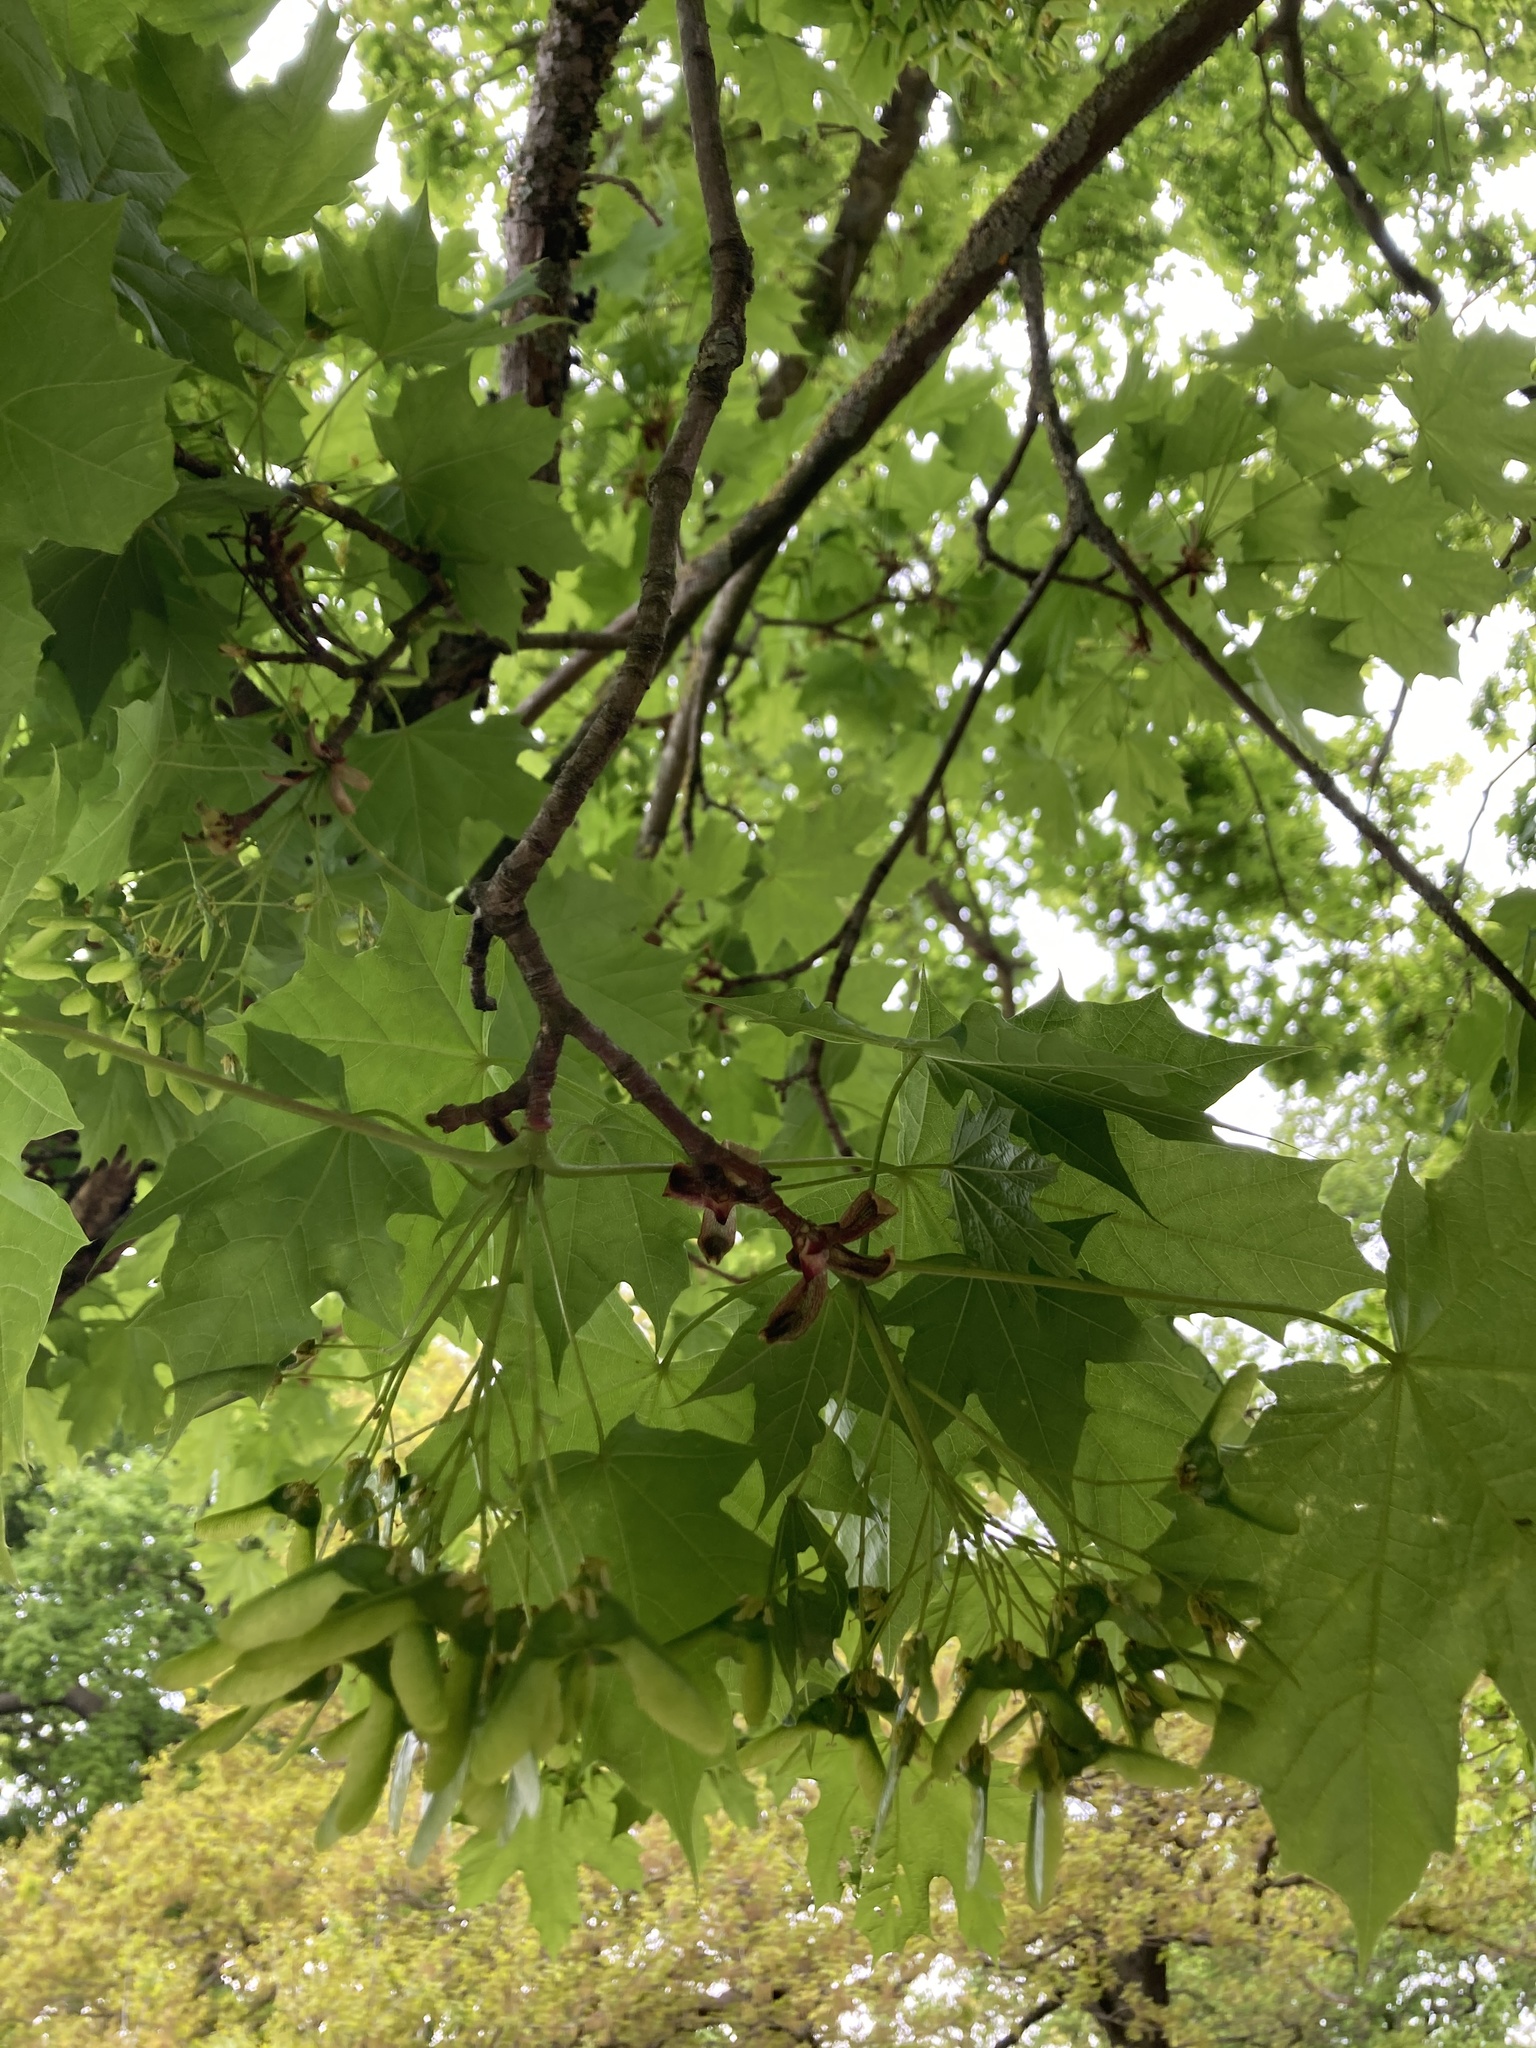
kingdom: Plantae
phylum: Tracheophyta
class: Magnoliopsida
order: Sapindales
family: Sapindaceae
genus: Acer
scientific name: Acer platanoides
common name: Norway maple
